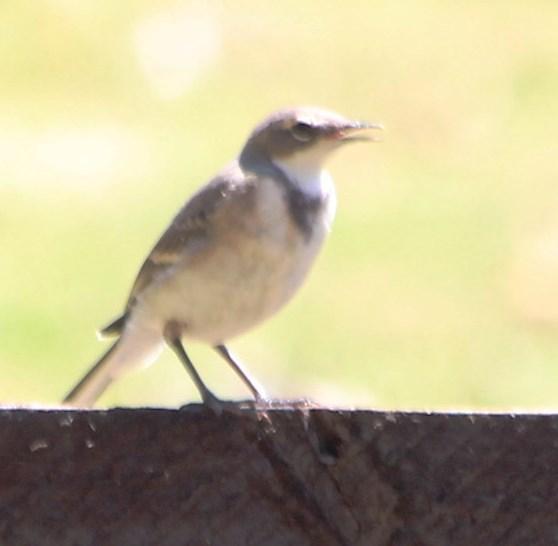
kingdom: Animalia
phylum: Chordata
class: Aves
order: Passeriformes
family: Motacillidae
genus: Motacilla
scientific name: Motacilla capensis
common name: Cape wagtail
